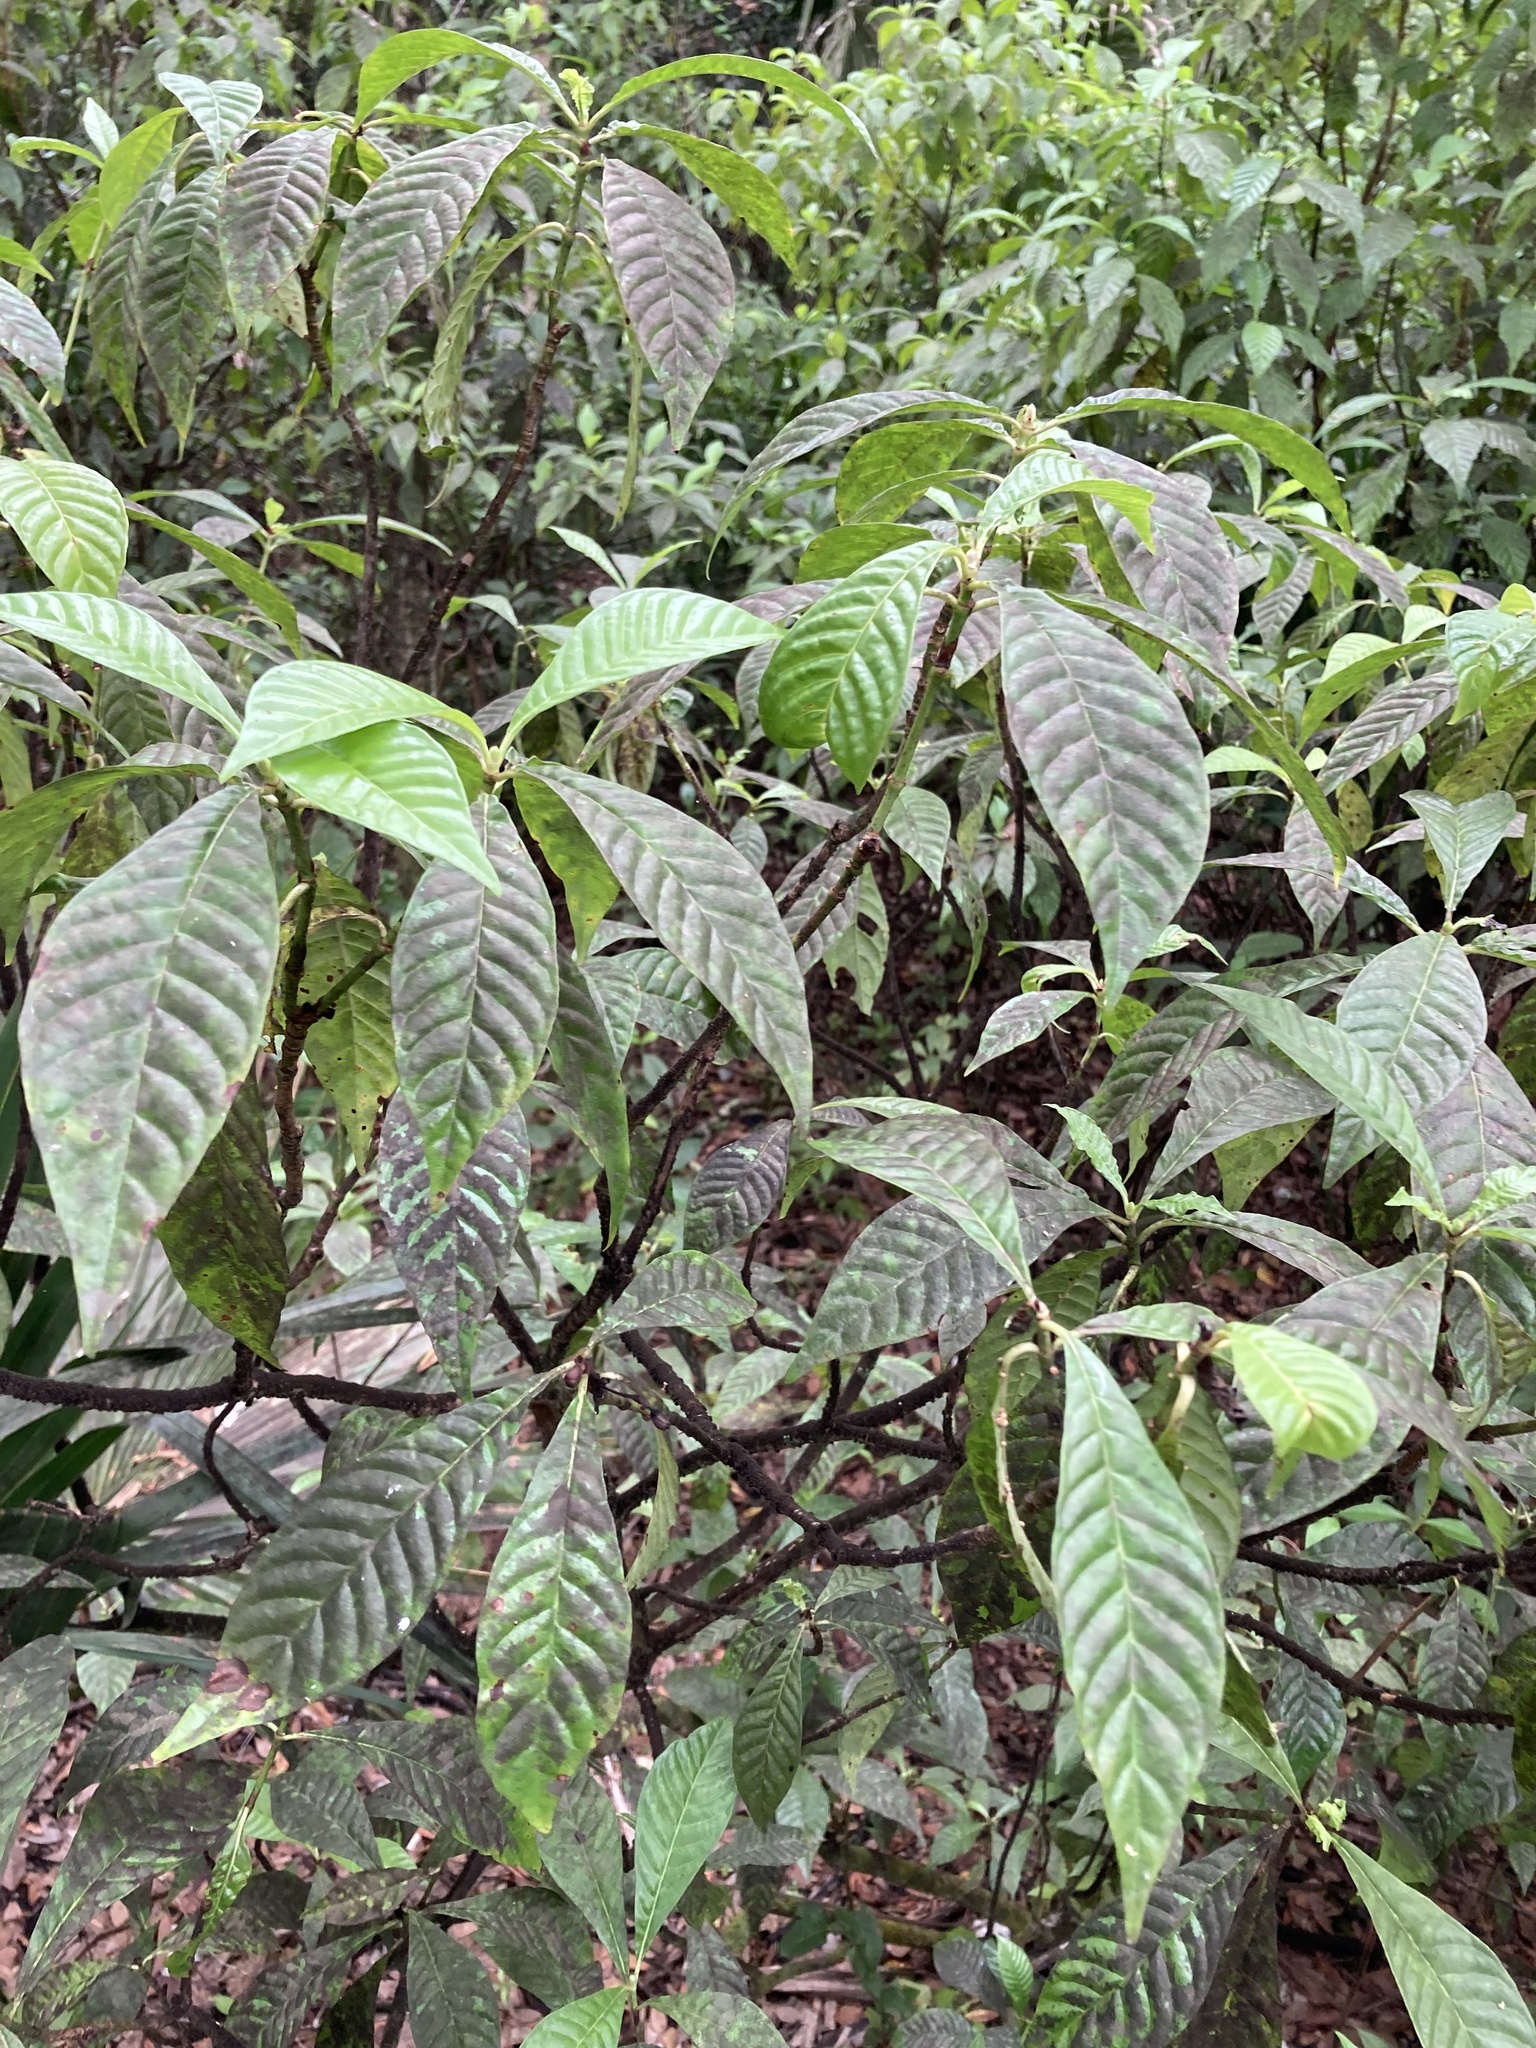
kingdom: Plantae
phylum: Tracheophyta
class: Magnoliopsida
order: Gentianales
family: Rubiaceae
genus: Psychotria
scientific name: Psychotria nervosa
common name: Bastard cankerberry
